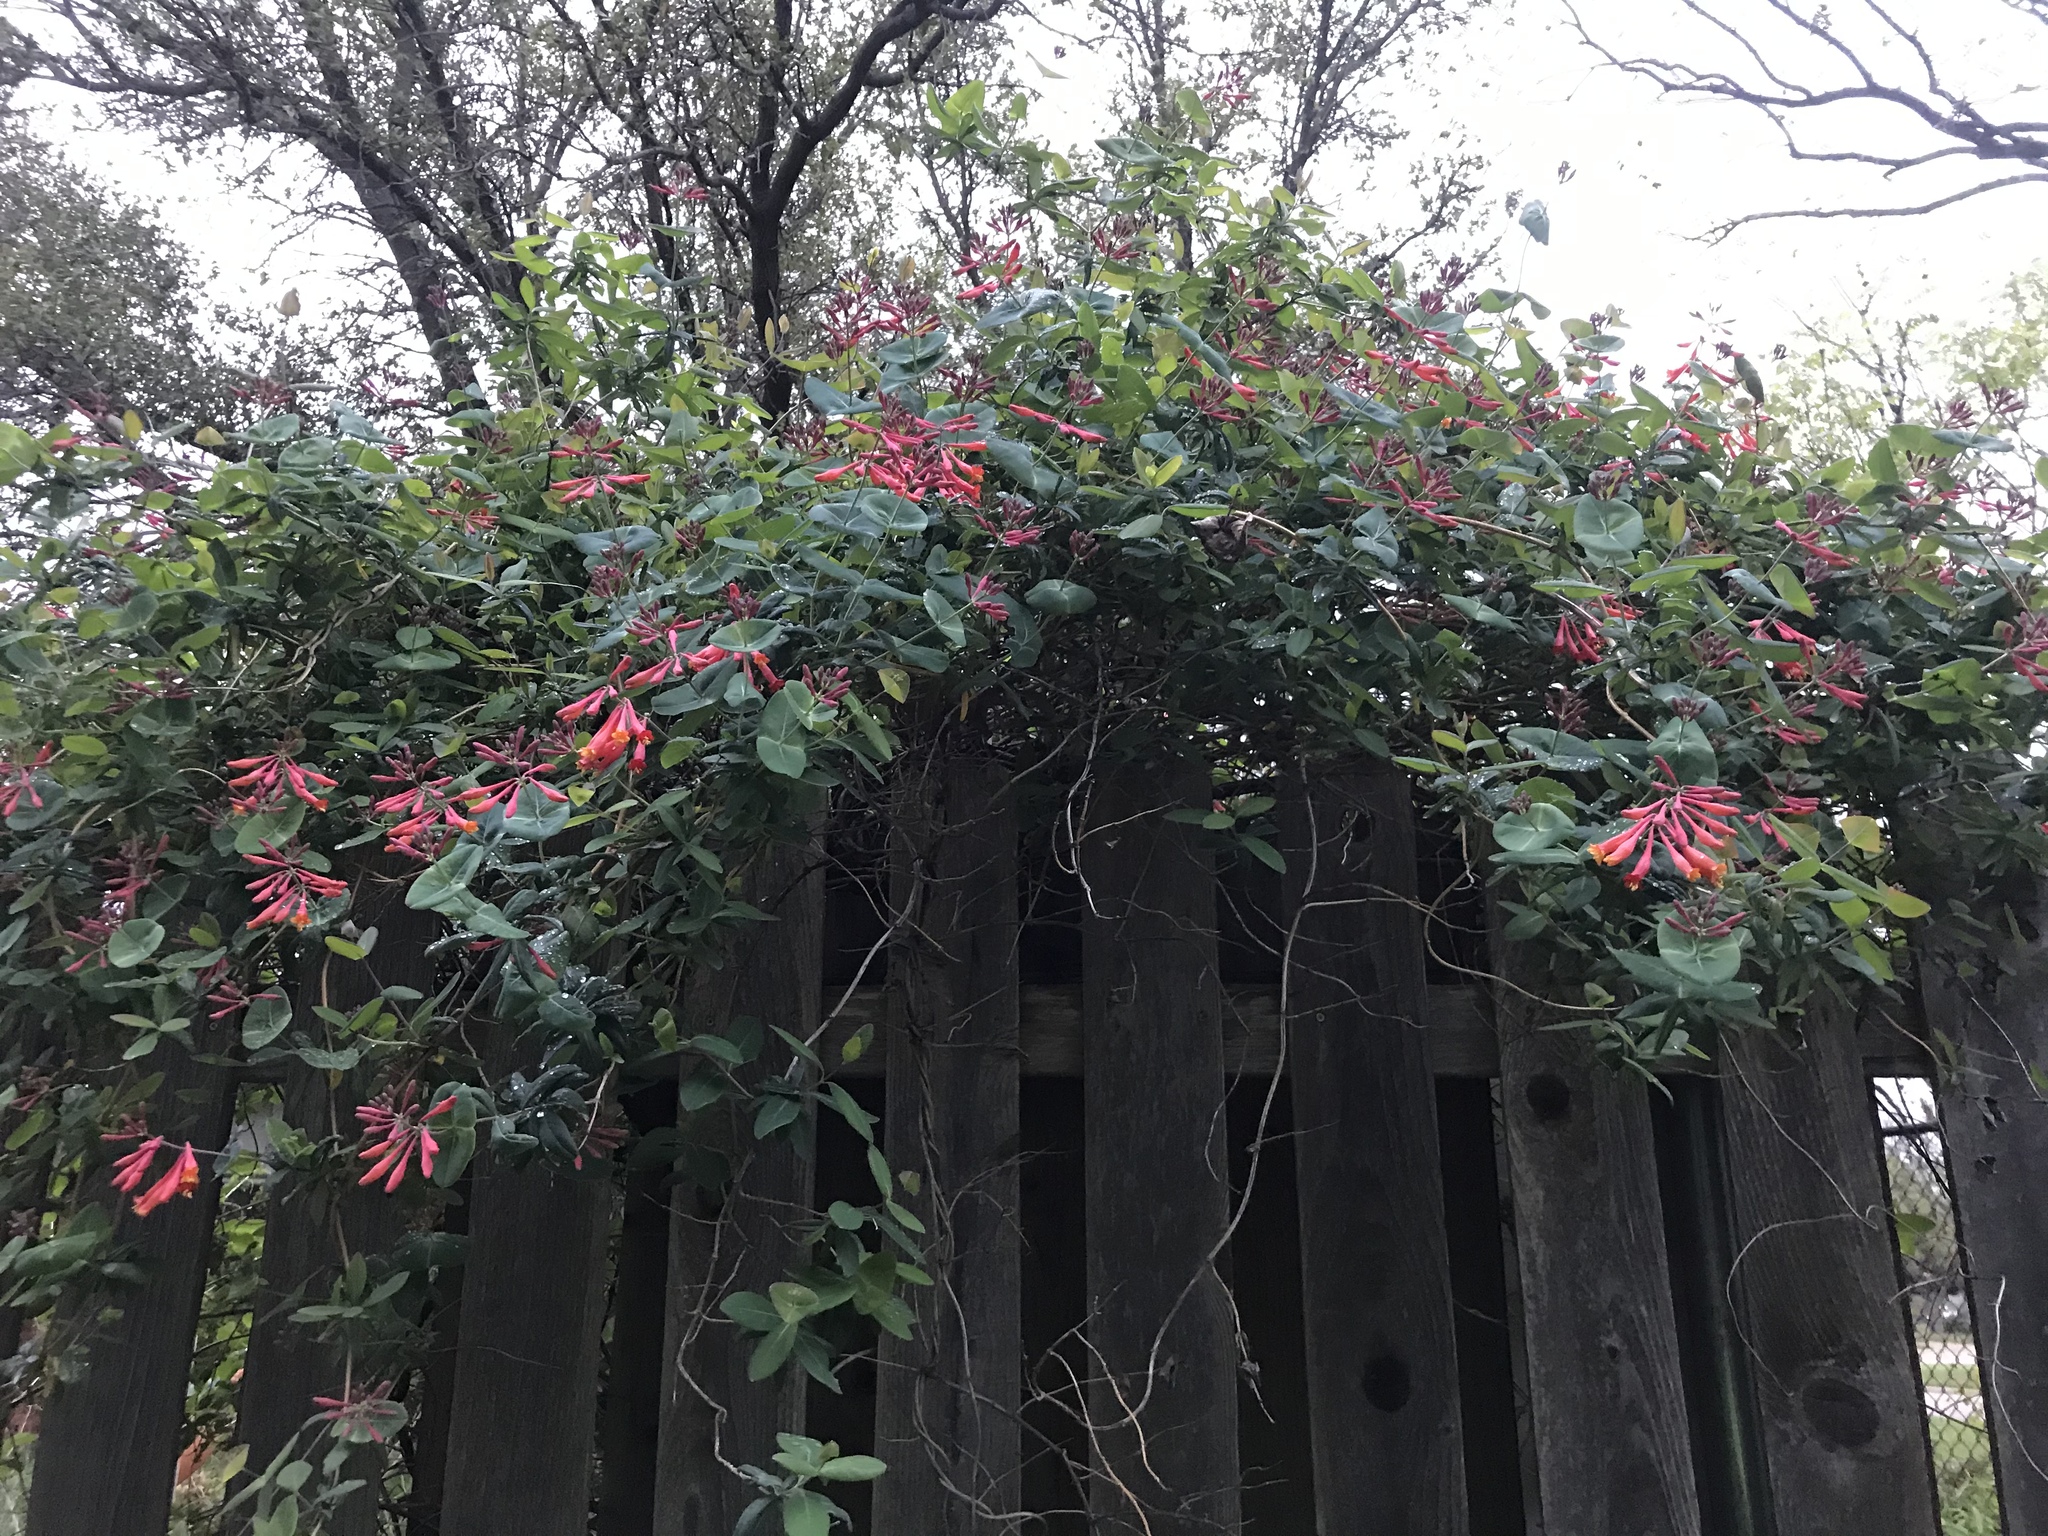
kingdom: Plantae
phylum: Tracheophyta
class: Magnoliopsida
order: Dipsacales
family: Caprifoliaceae
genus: Lonicera
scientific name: Lonicera sempervirens
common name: Coral honeysuckle
